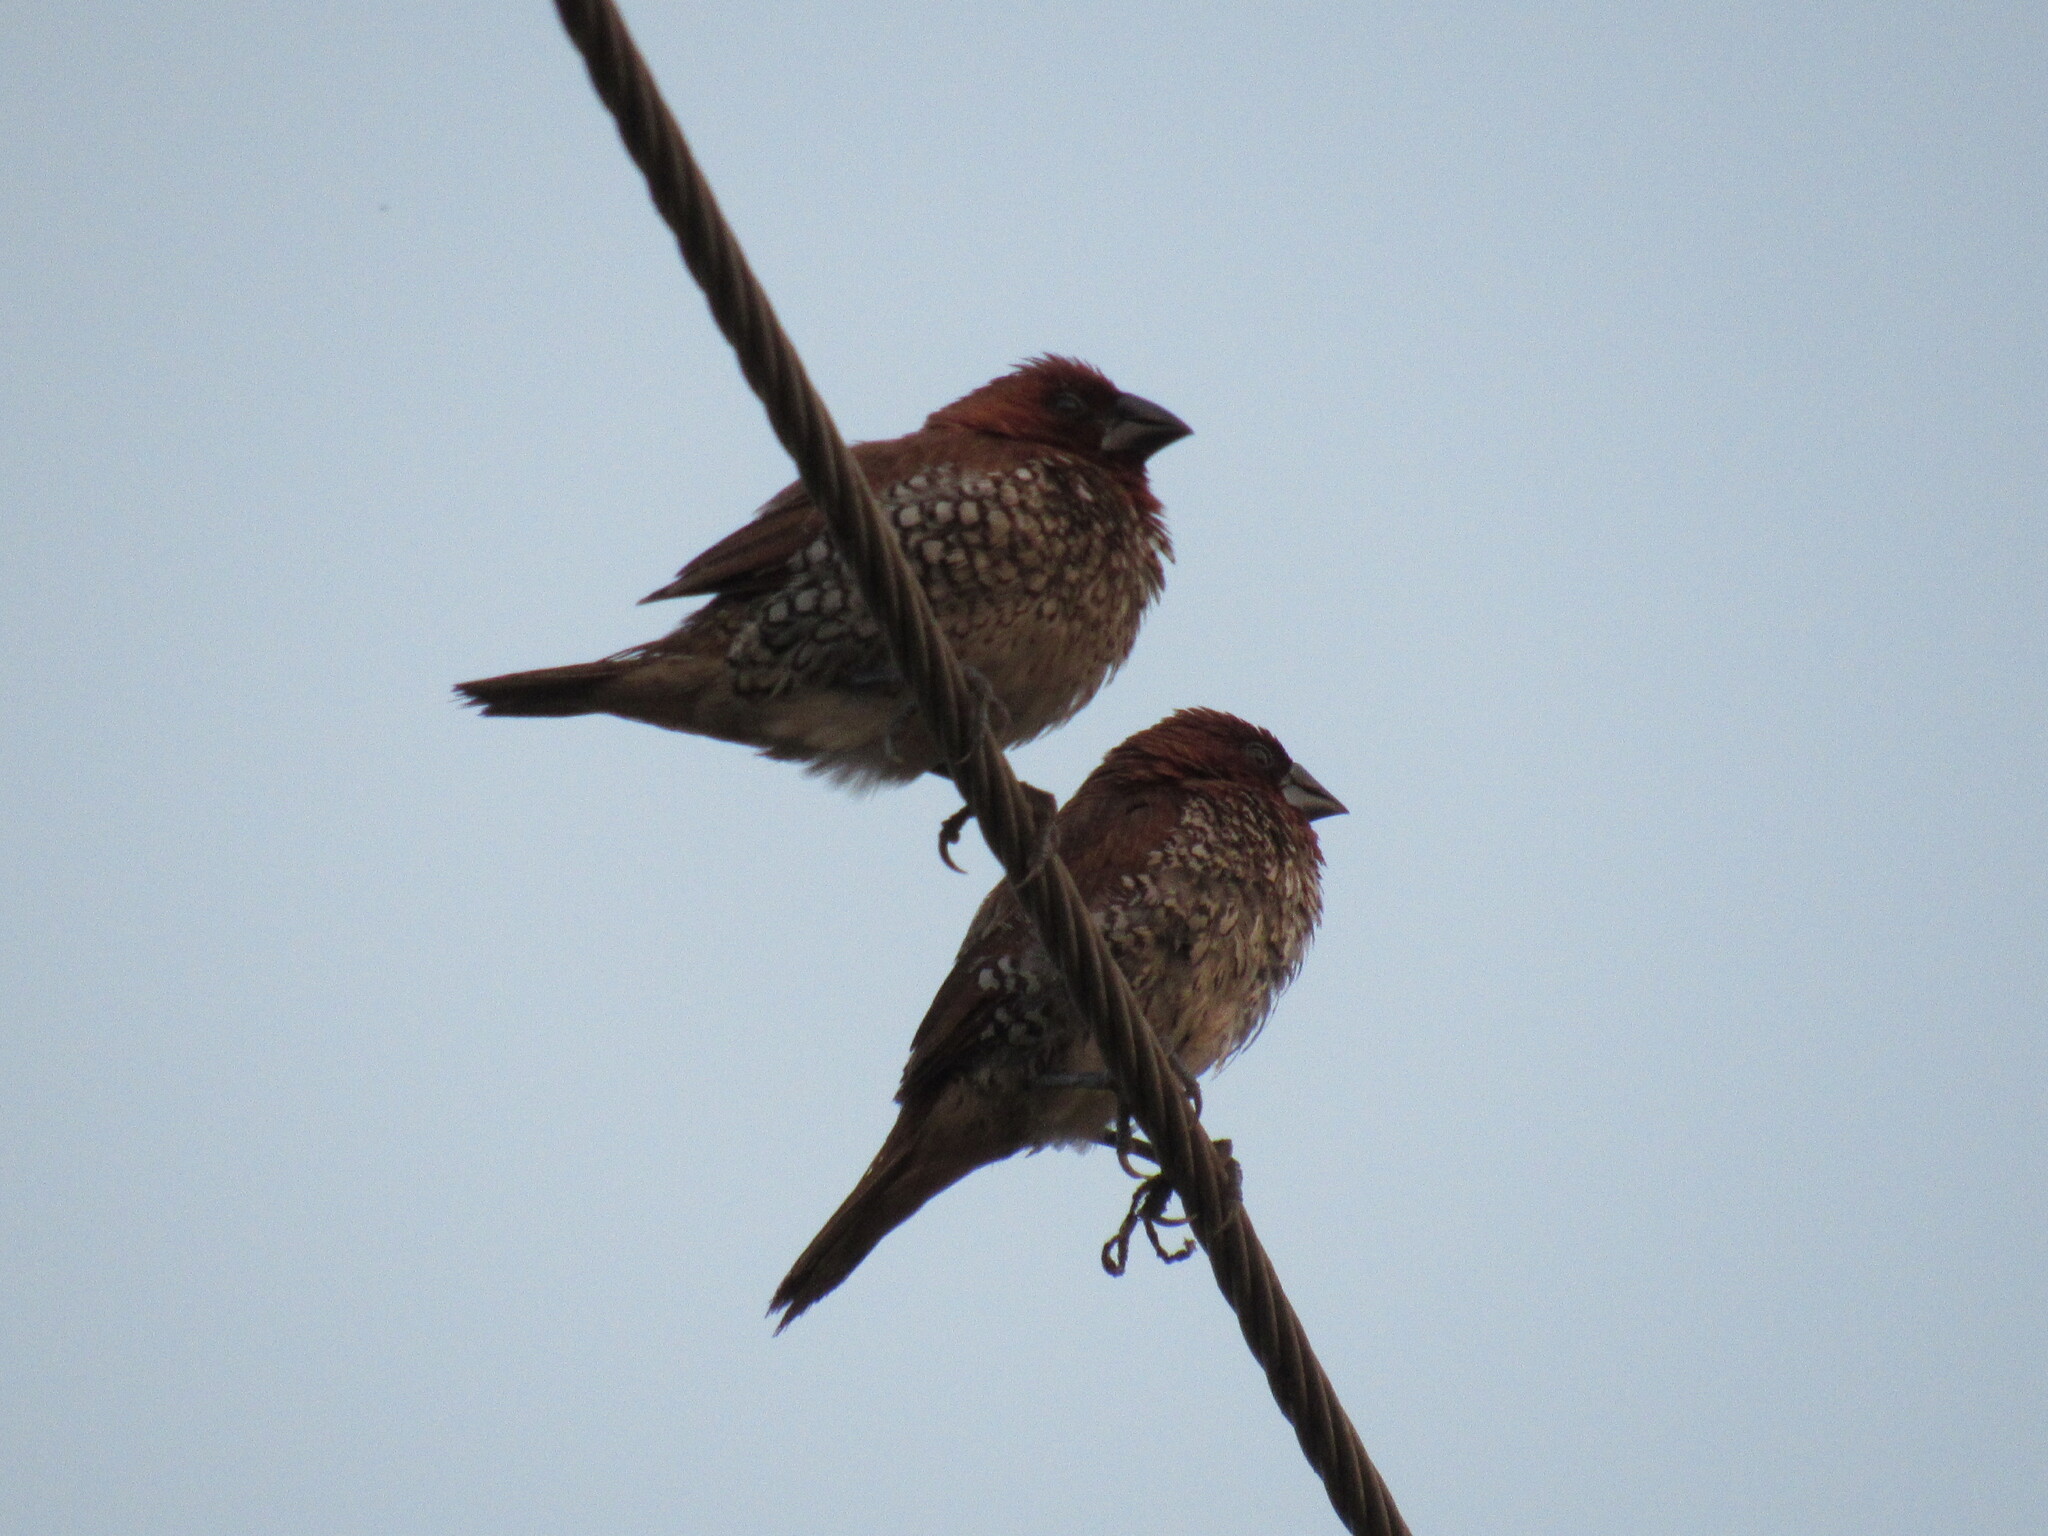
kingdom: Animalia
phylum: Chordata
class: Aves
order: Passeriformes
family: Estrildidae
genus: Lonchura
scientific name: Lonchura punctulata
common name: Scaly-breasted munia
